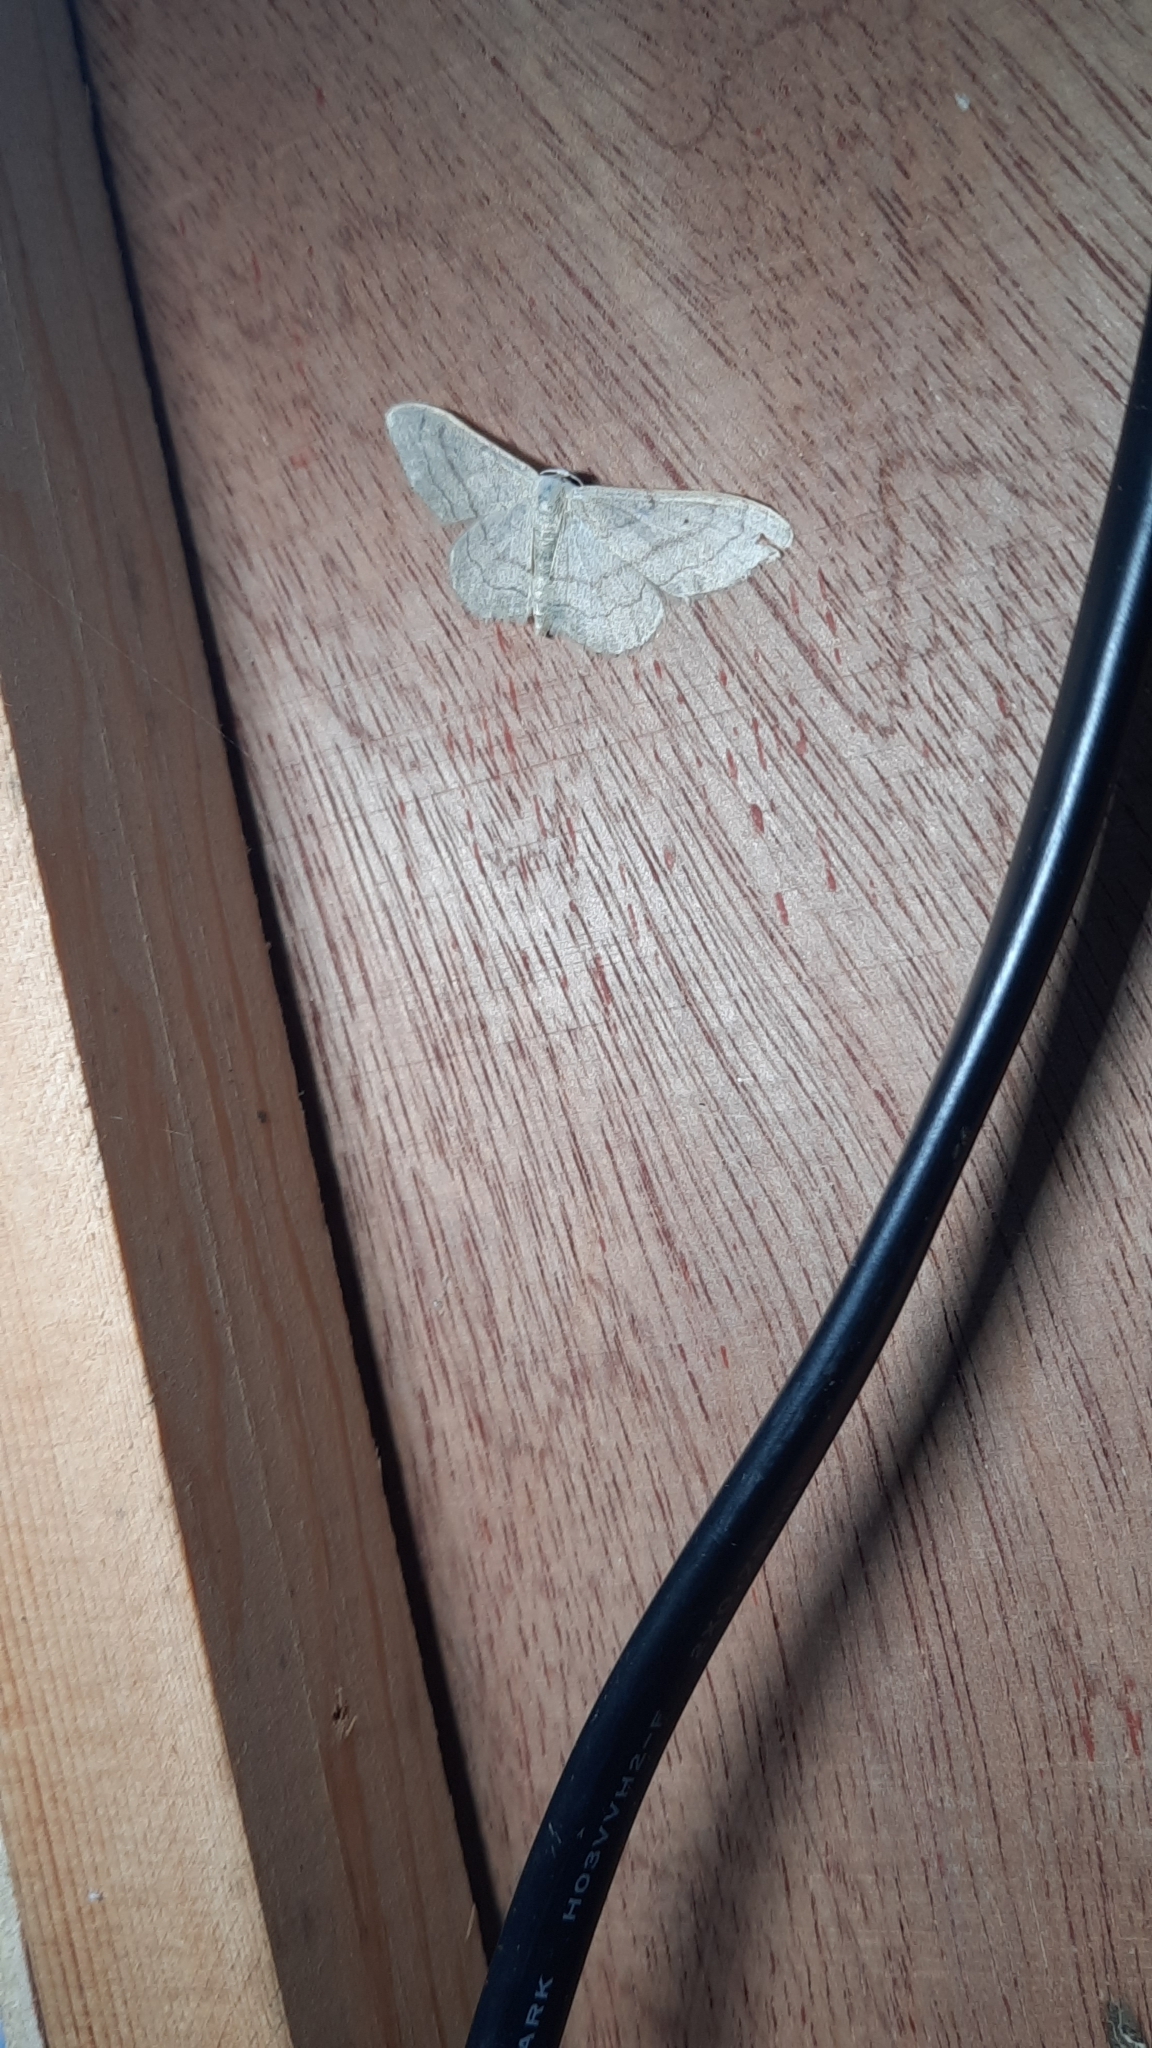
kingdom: Animalia
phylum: Arthropoda
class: Insecta
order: Lepidoptera
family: Geometridae
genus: Idaea
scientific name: Idaea aversata
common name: Riband wave
